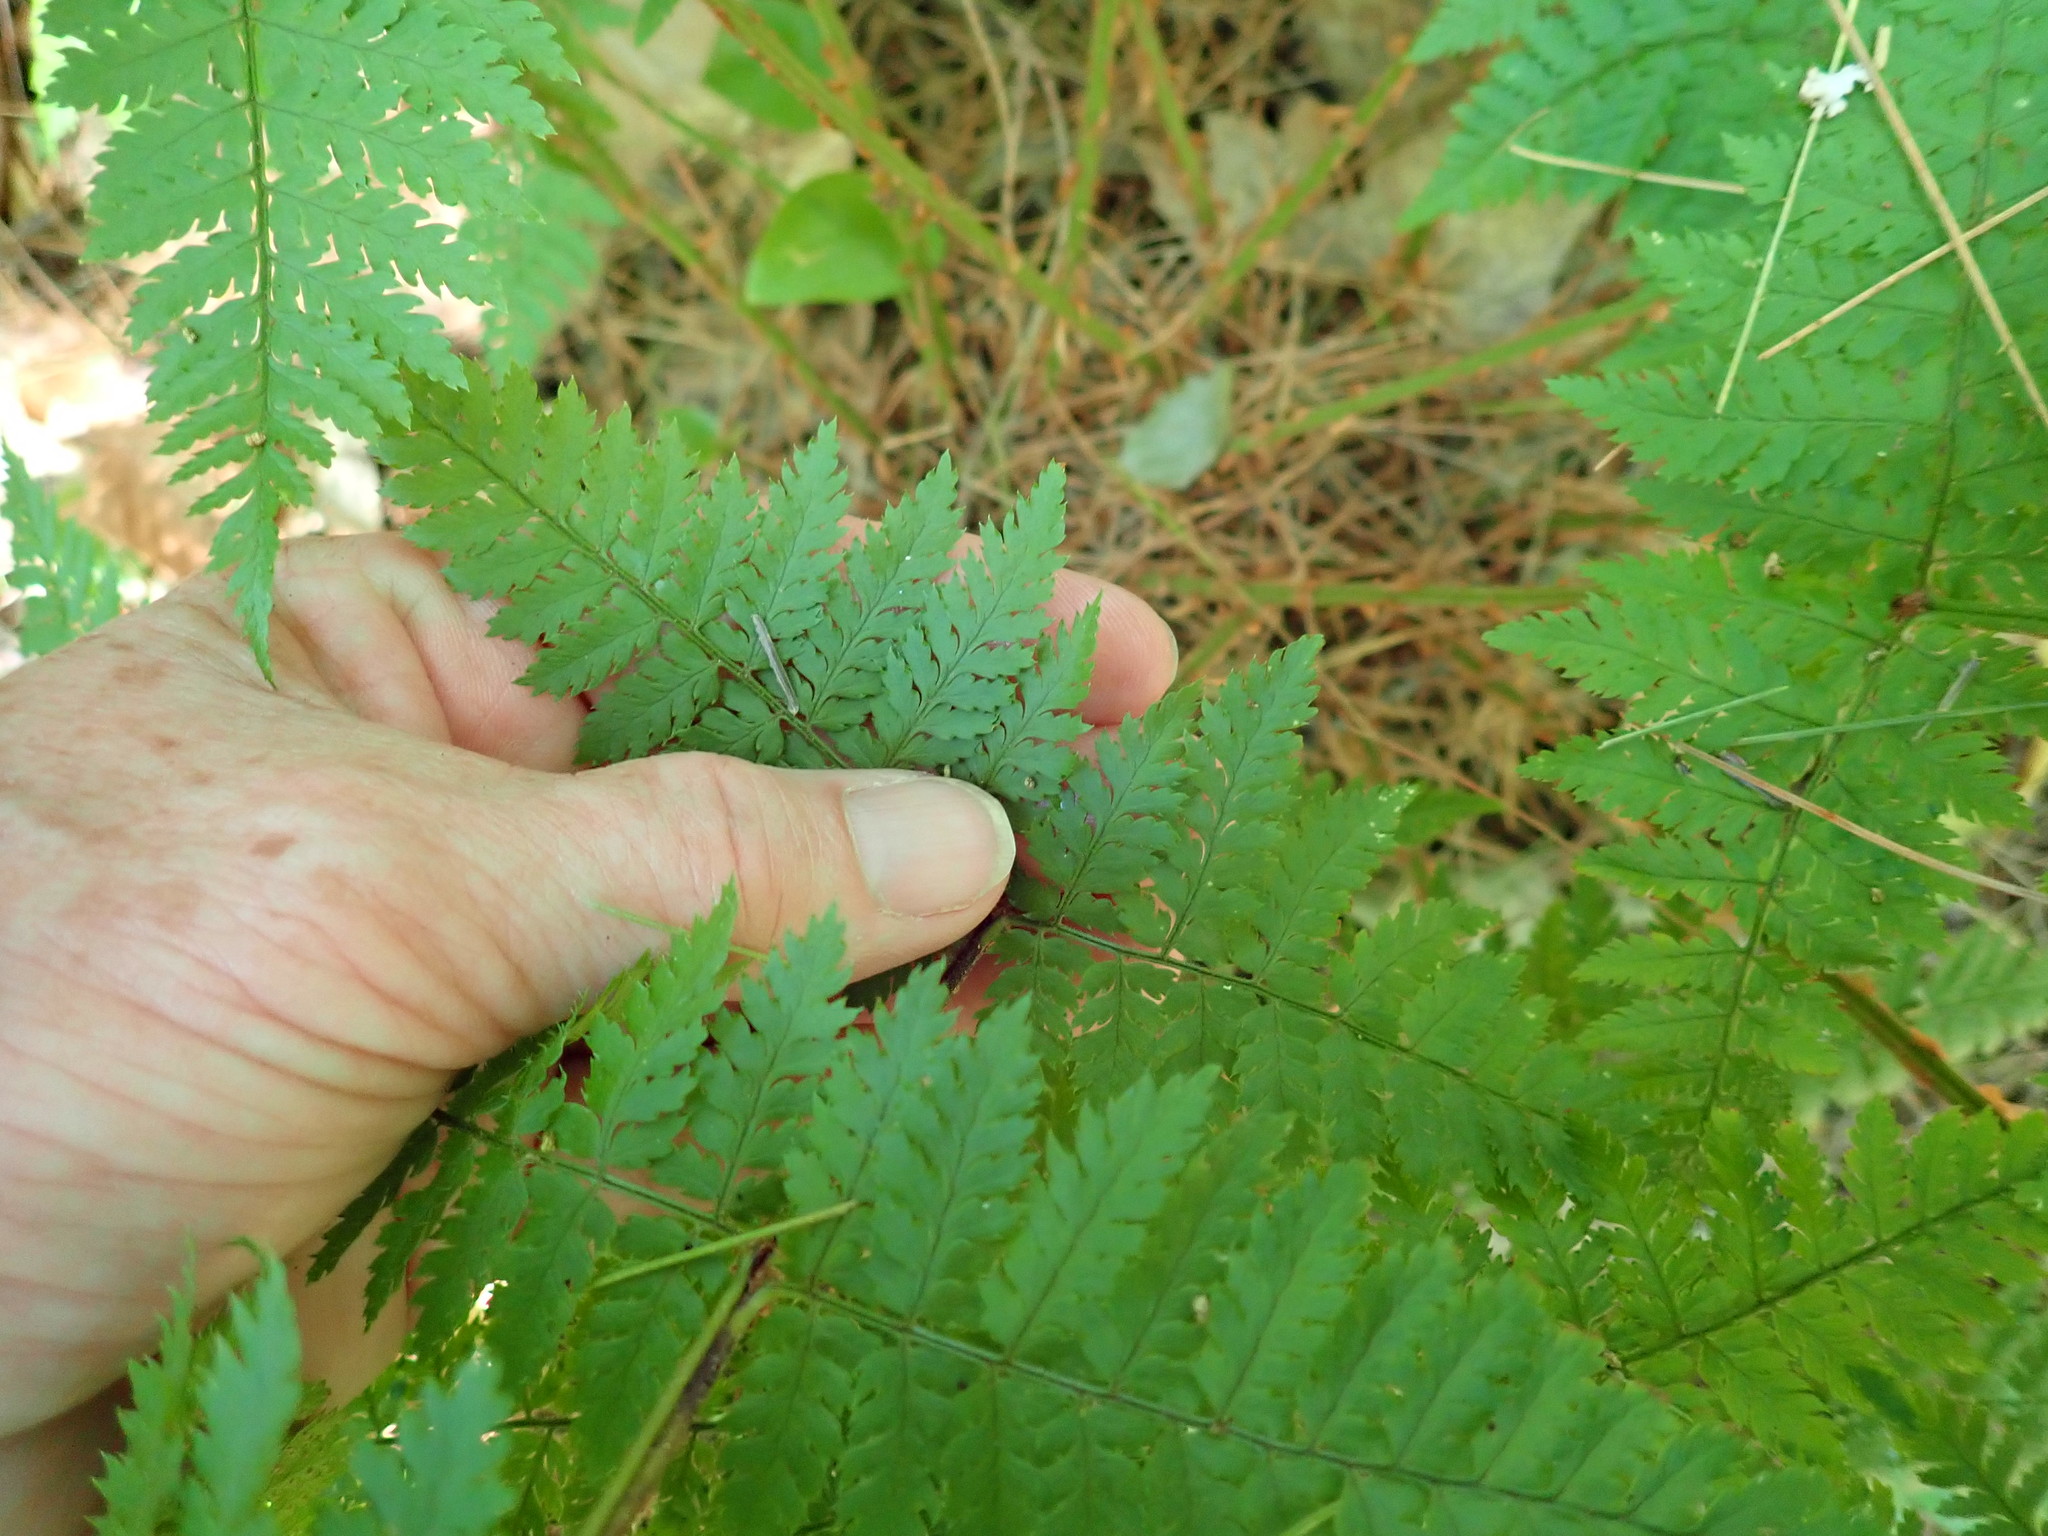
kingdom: Plantae
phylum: Tracheophyta
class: Polypodiopsida
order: Polypodiales
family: Dryopteridaceae
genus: Dryopteris
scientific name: Dryopteris intermedia
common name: Evergreen wood fern
